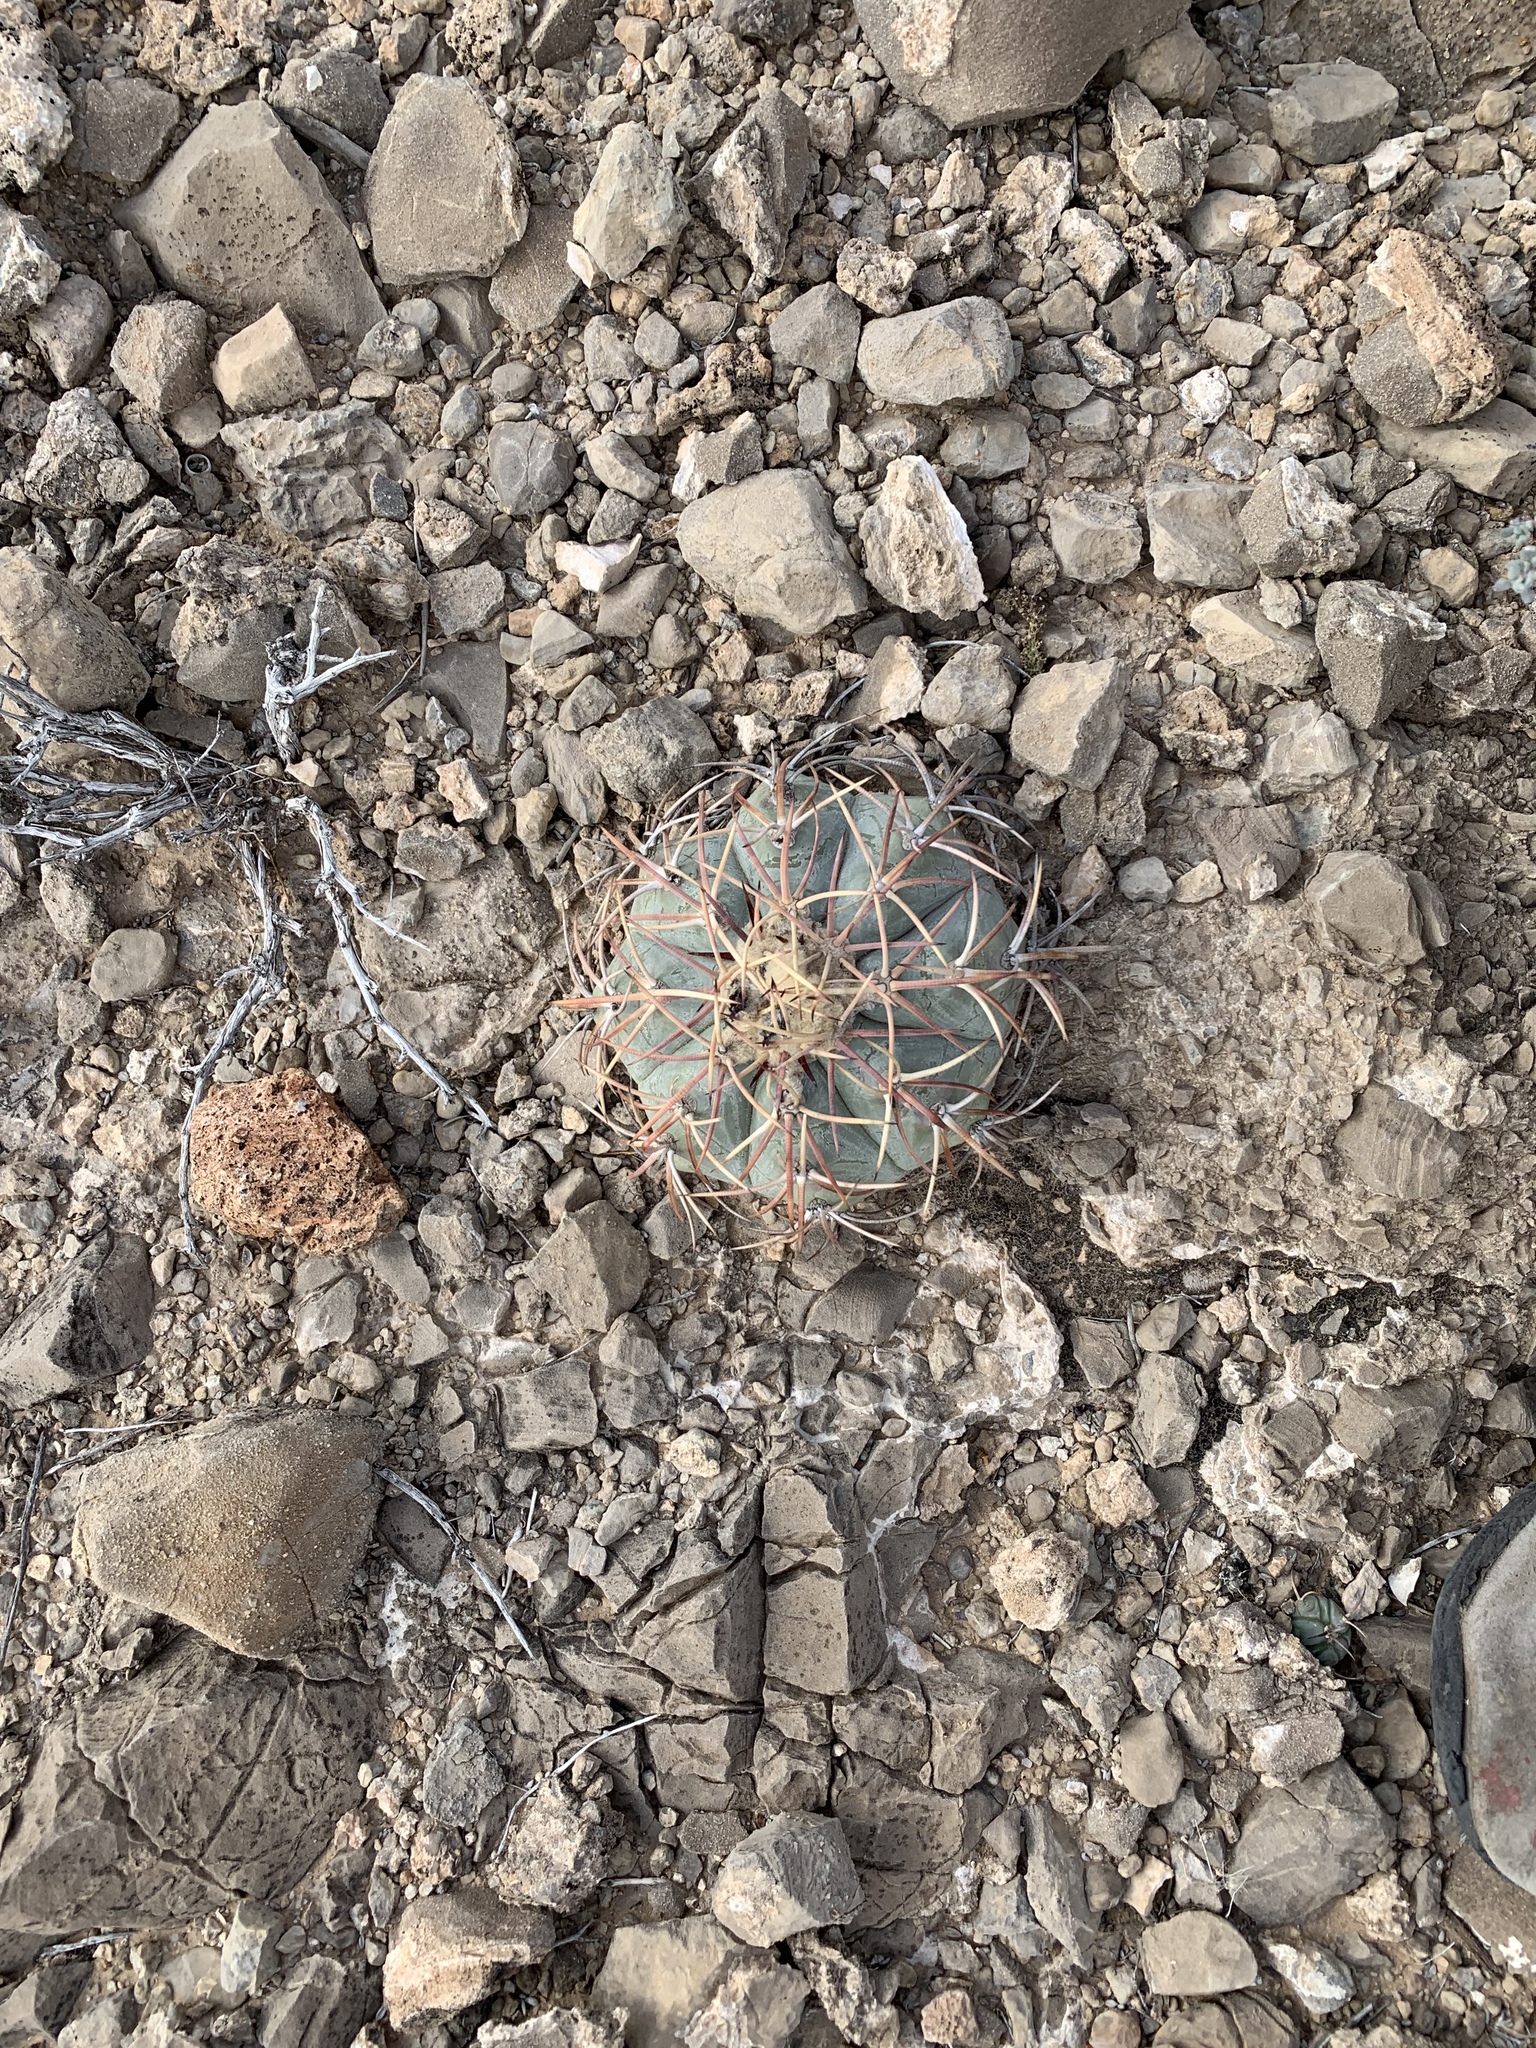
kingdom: Plantae
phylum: Tracheophyta
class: Magnoliopsida
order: Caryophyllales
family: Cactaceae
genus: Echinocactus
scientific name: Echinocactus horizonthalonius
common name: Devilshead
